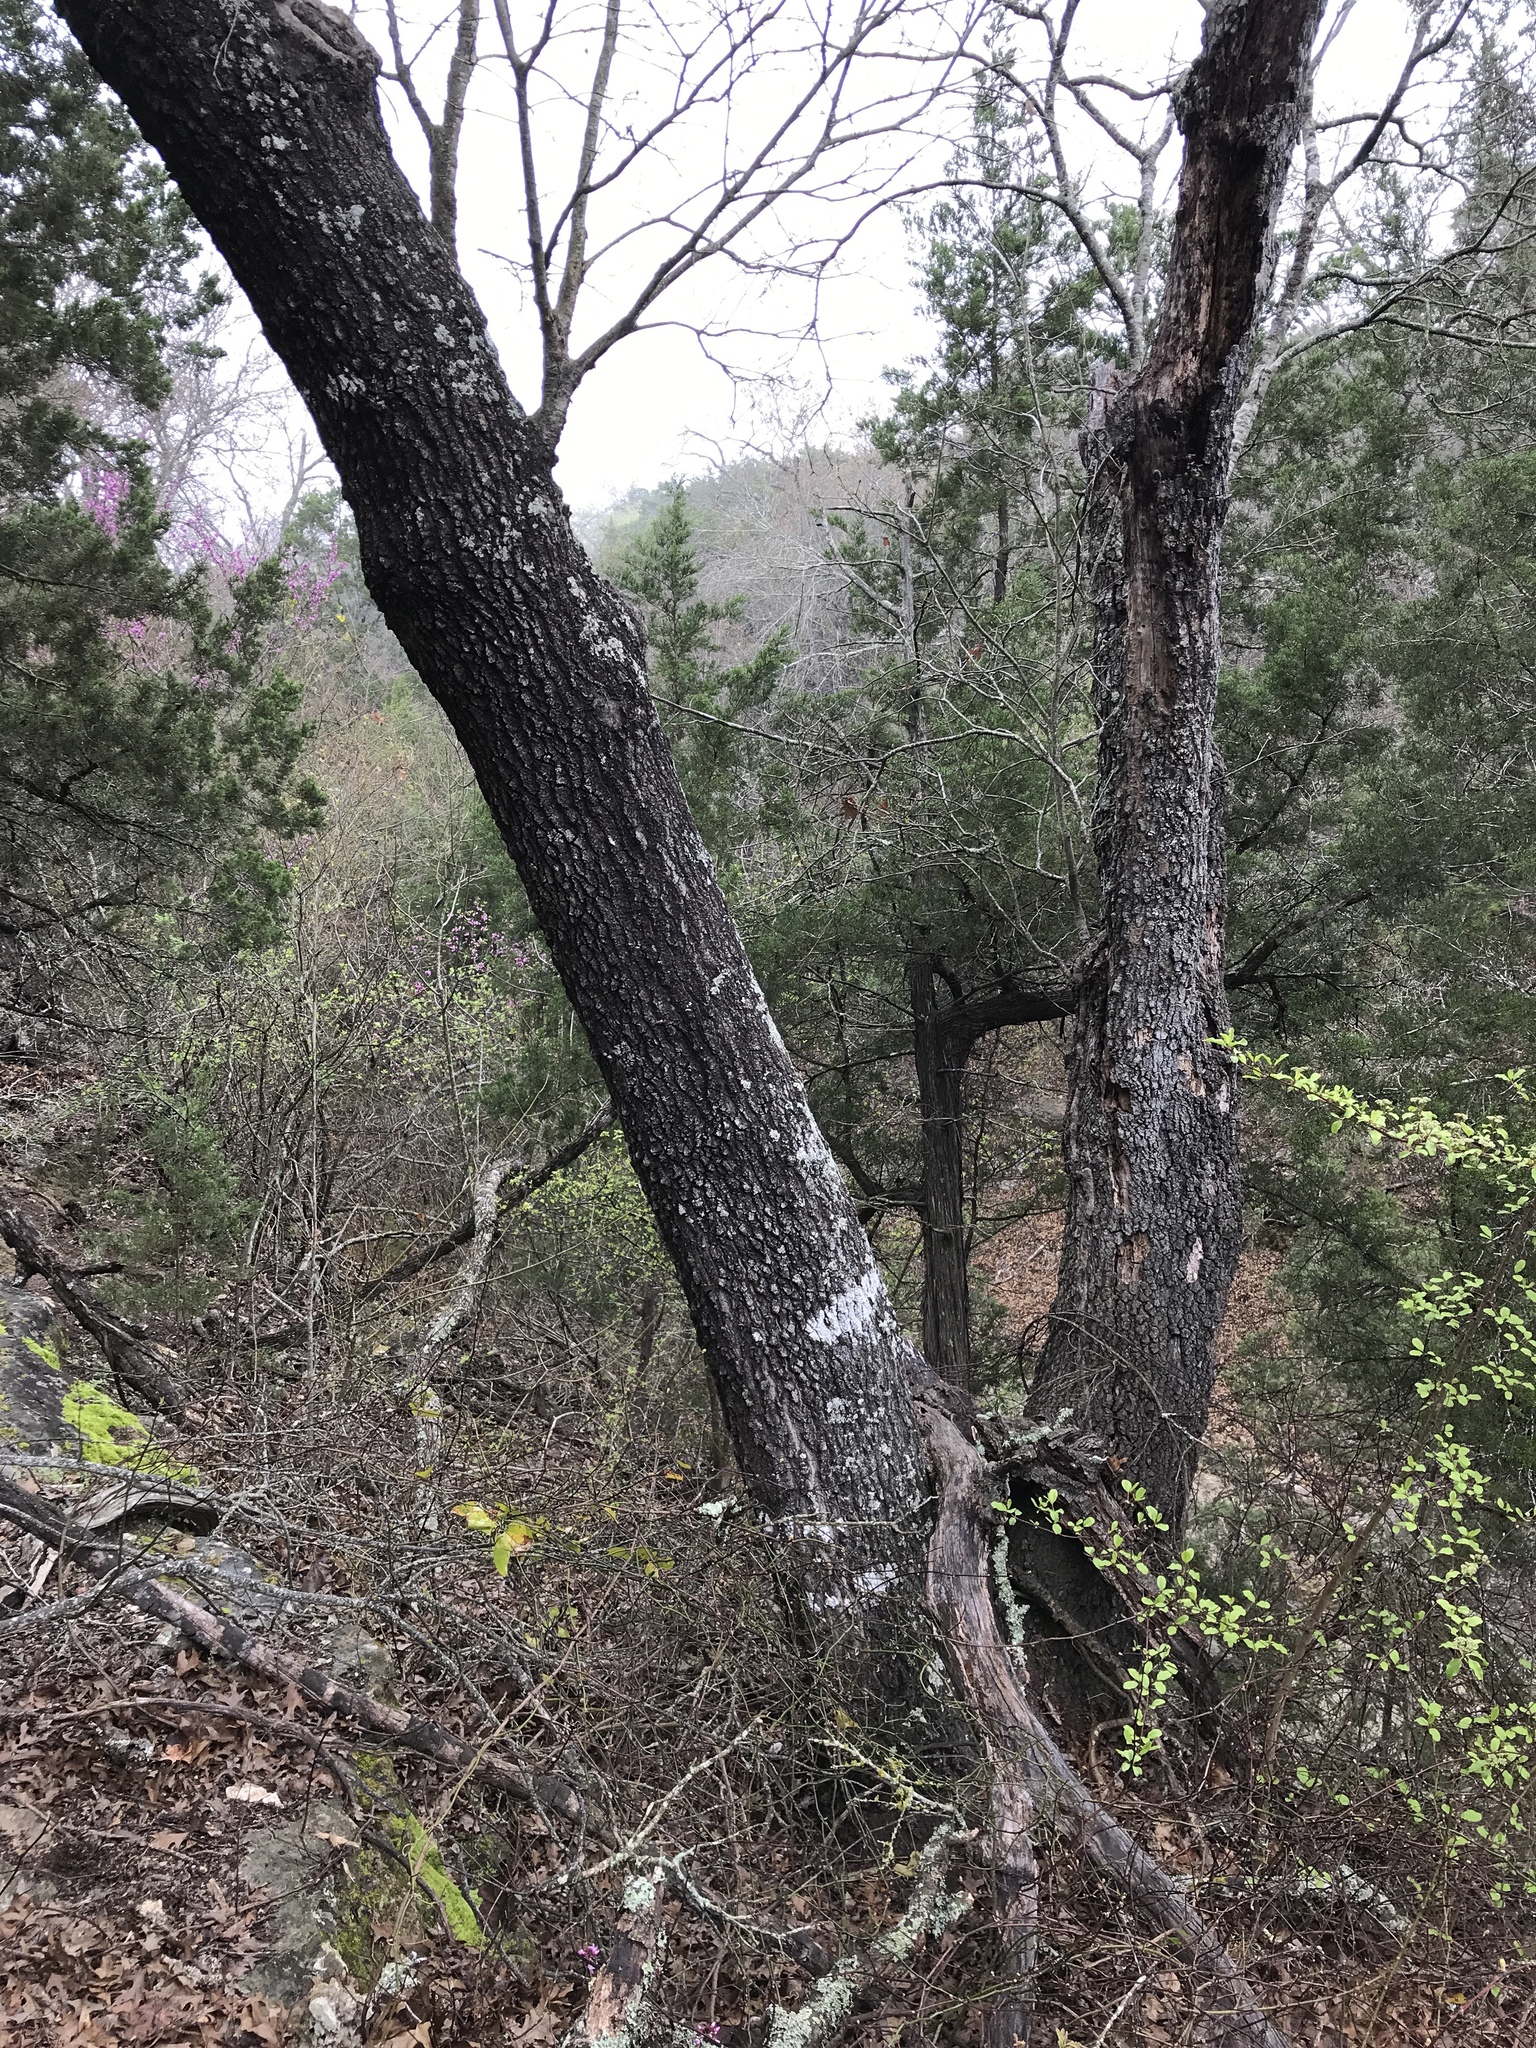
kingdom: Plantae
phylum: Tracheophyta
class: Magnoliopsida
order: Fagales
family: Fagaceae
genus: Quercus
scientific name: Quercus buckleyi
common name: Buckley oak
